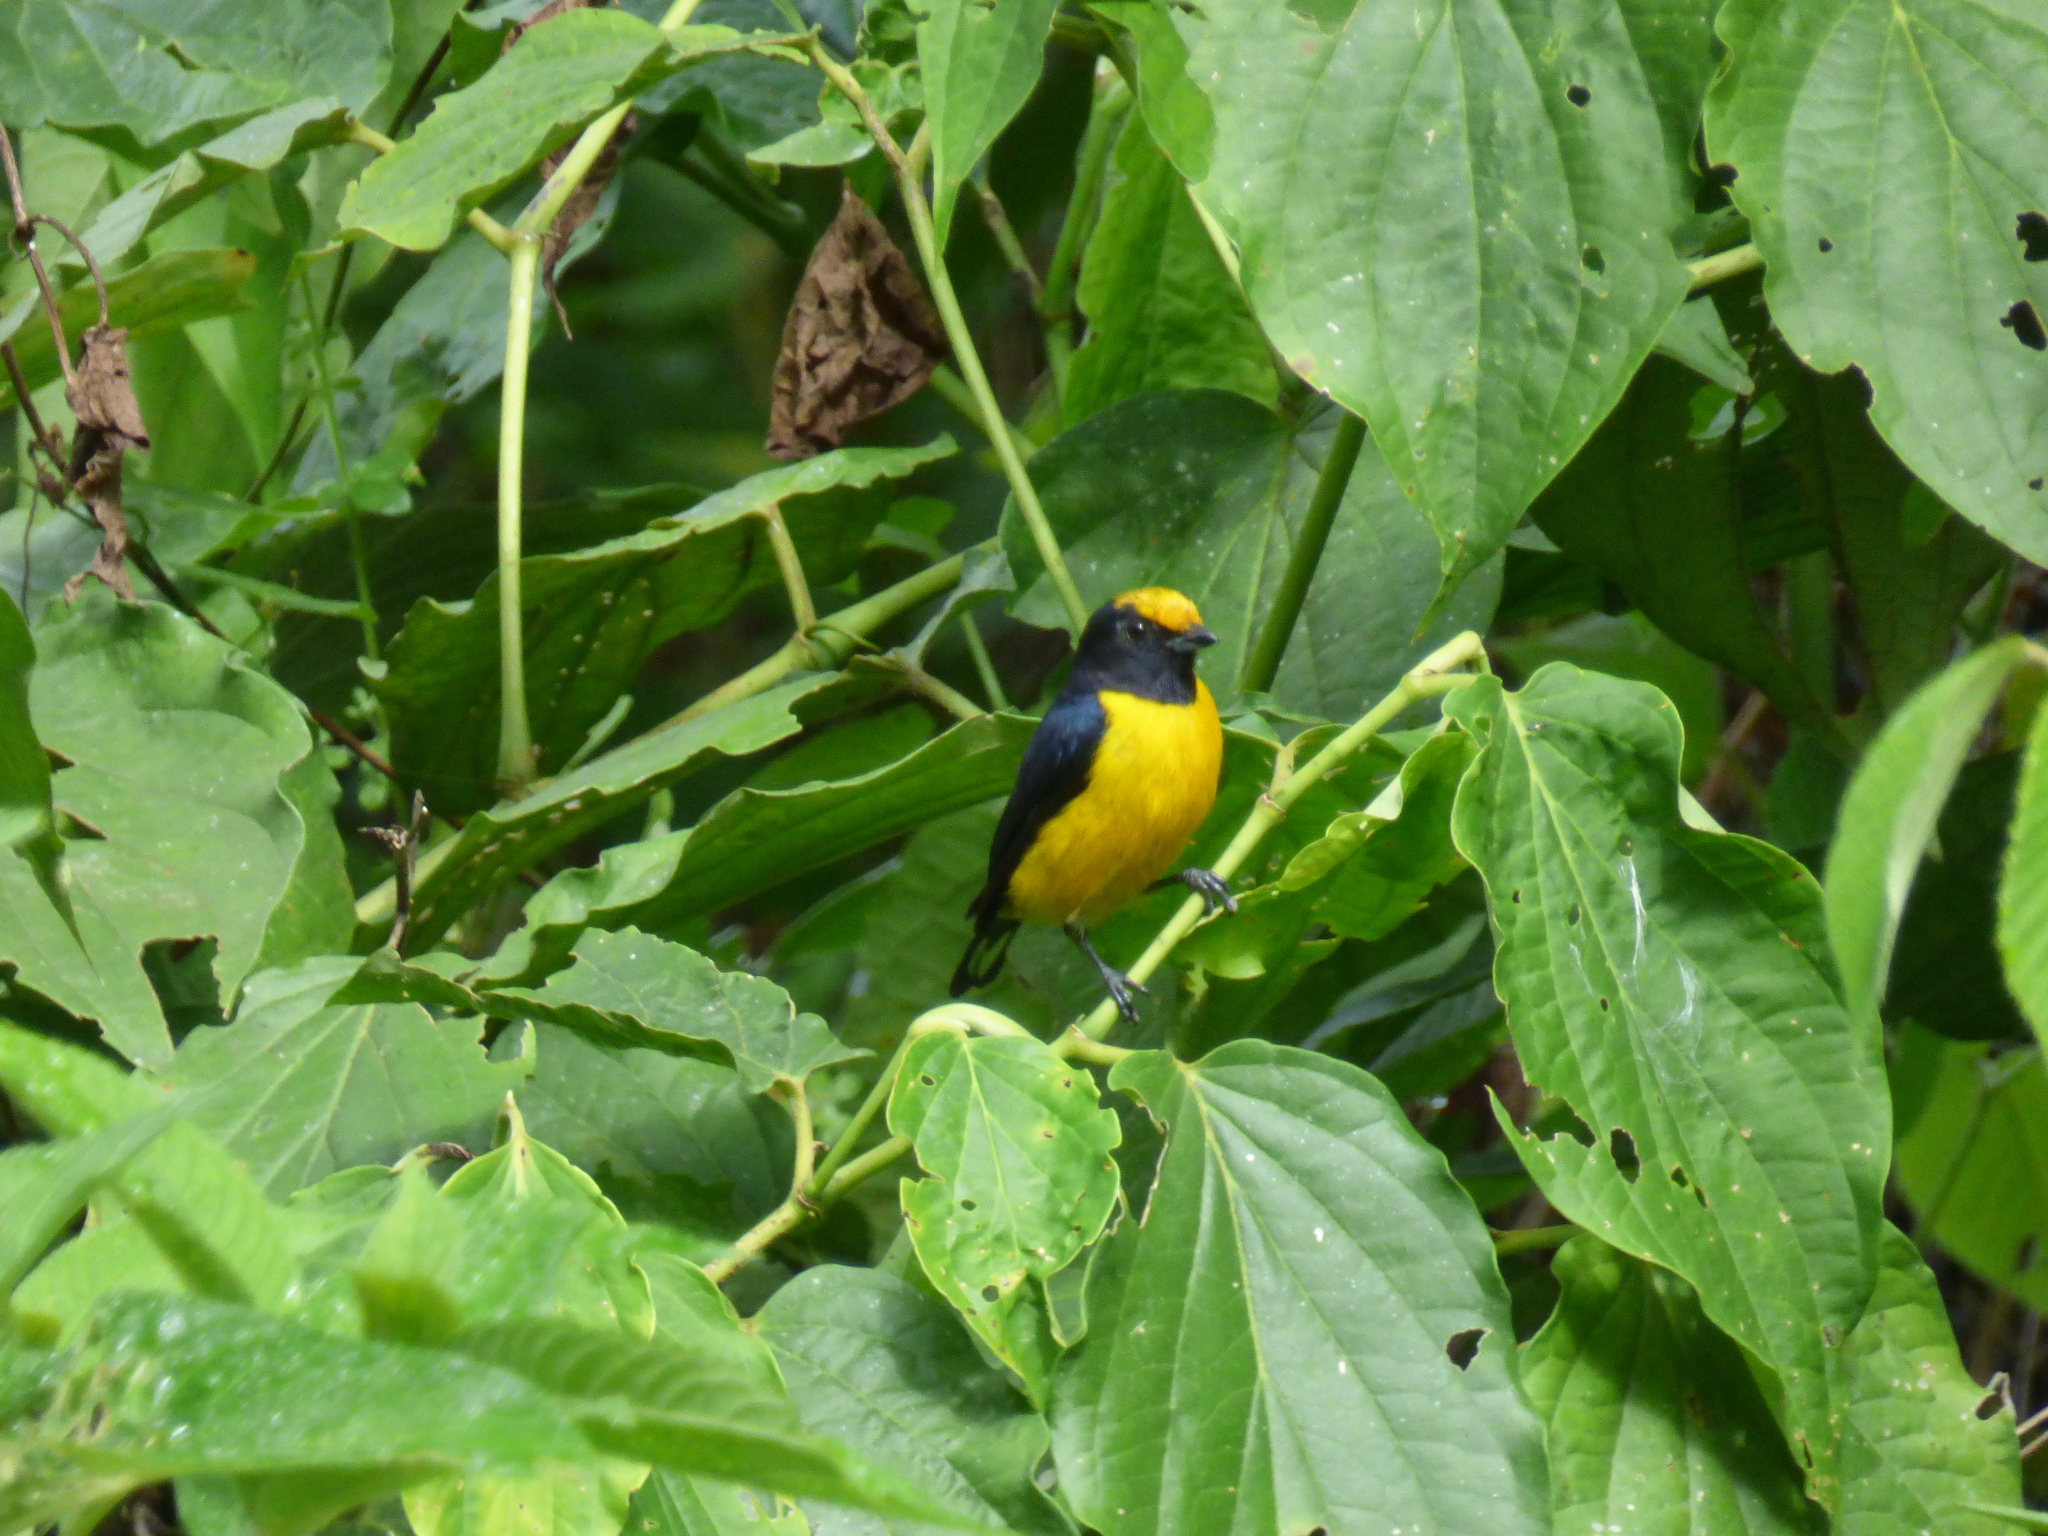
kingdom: Animalia
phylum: Chordata
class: Aves
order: Passeriformes
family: Fringillidae
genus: Euphonia
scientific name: Euphonia xanthogaster
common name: Orange-bellied euphonia
